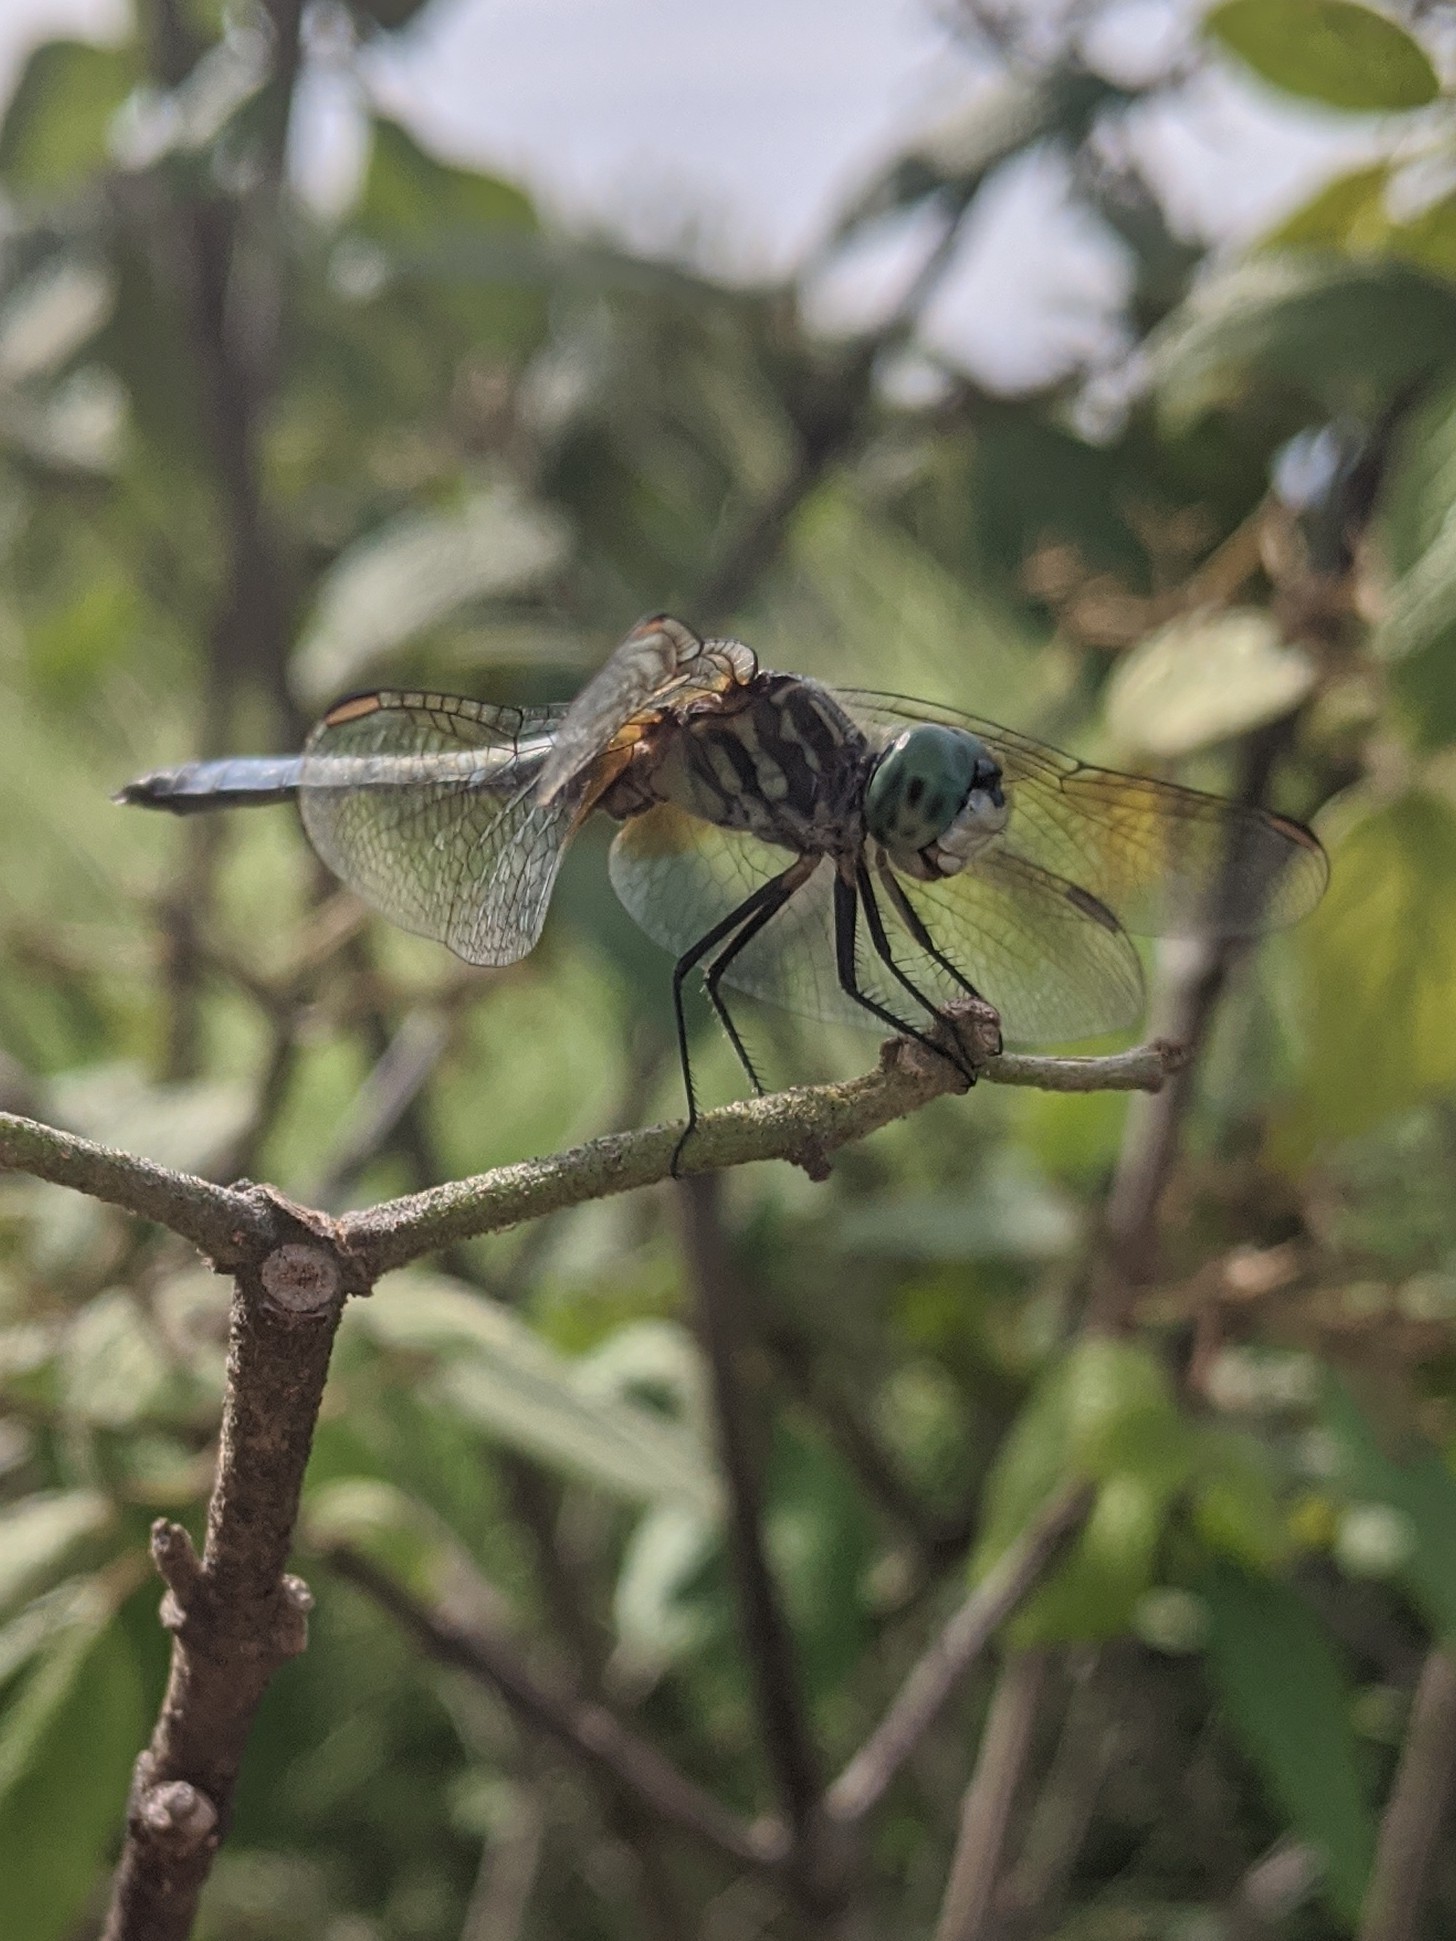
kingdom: Animalia
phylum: Arthropoda
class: Insecta
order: Odonata
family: Libellulidae
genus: Pachydiplax
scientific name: Pachydiplax longipennis
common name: Blue dasher
